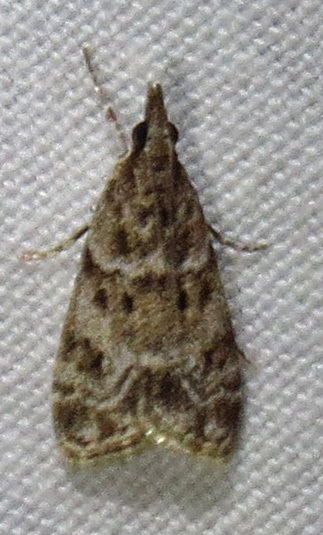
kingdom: Animalia
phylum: Arthropoda
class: Insecta
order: Lepidoptera
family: Crambidae
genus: Eudonia
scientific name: Eudonia heterosalis
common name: Mcdunnough's eudonia
